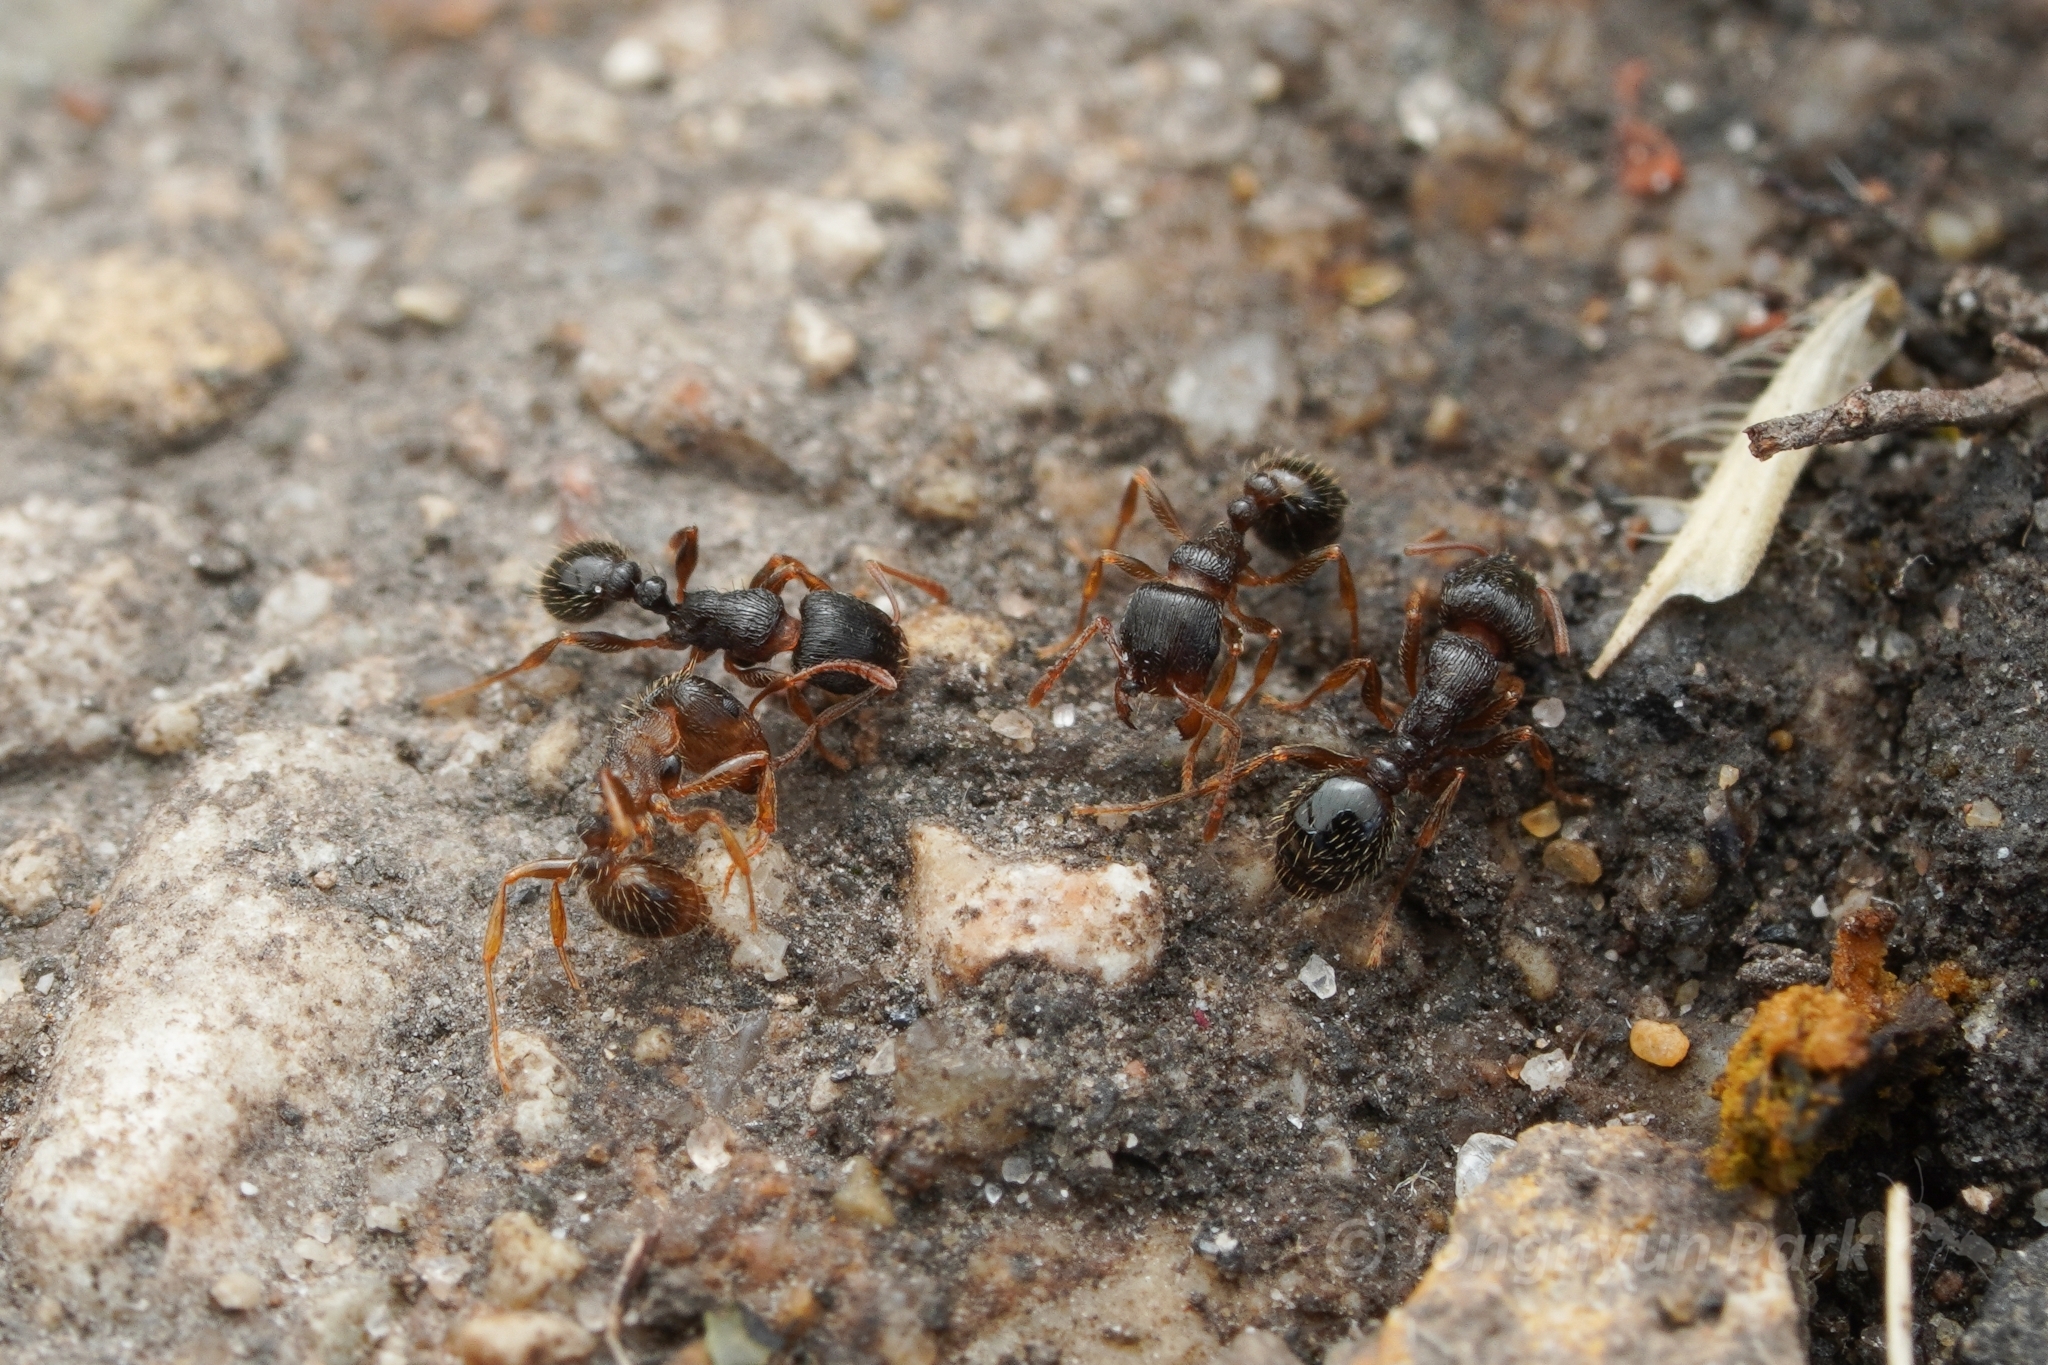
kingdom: Animalia
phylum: Arthropoda
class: Insecta
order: Hymenoptera
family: Formicidae
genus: Tetramorium
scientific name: Tetramorium immigrans
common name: Pavement ant
